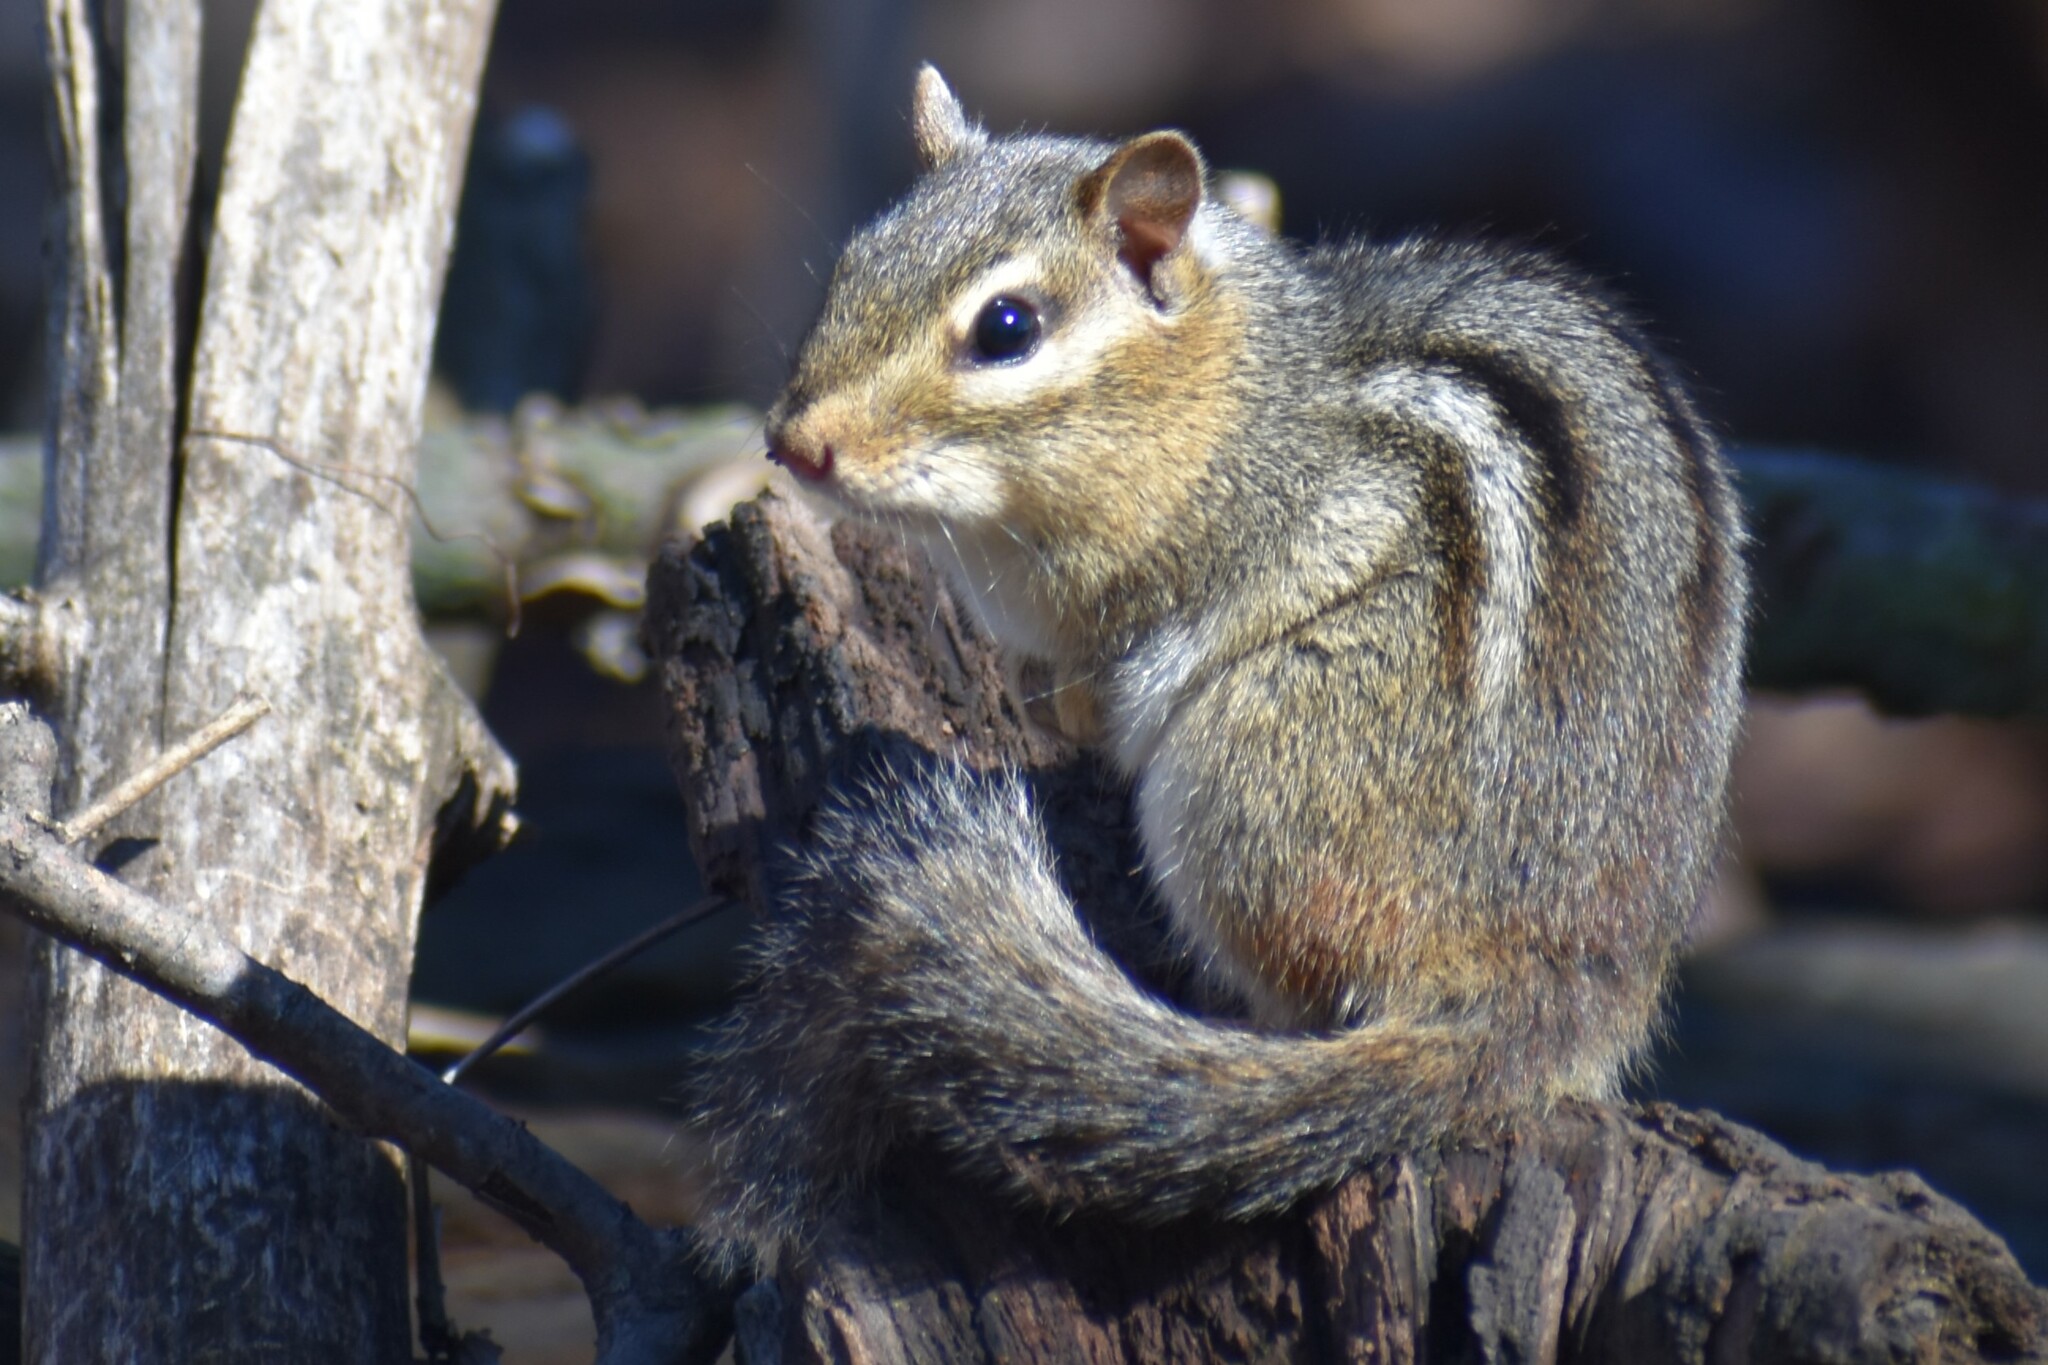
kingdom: Animalia
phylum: Chordata
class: Mammalia
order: Rodentia
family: Sciuridae
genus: Tamias
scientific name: Tamias striatus
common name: Eastern chipmunk
